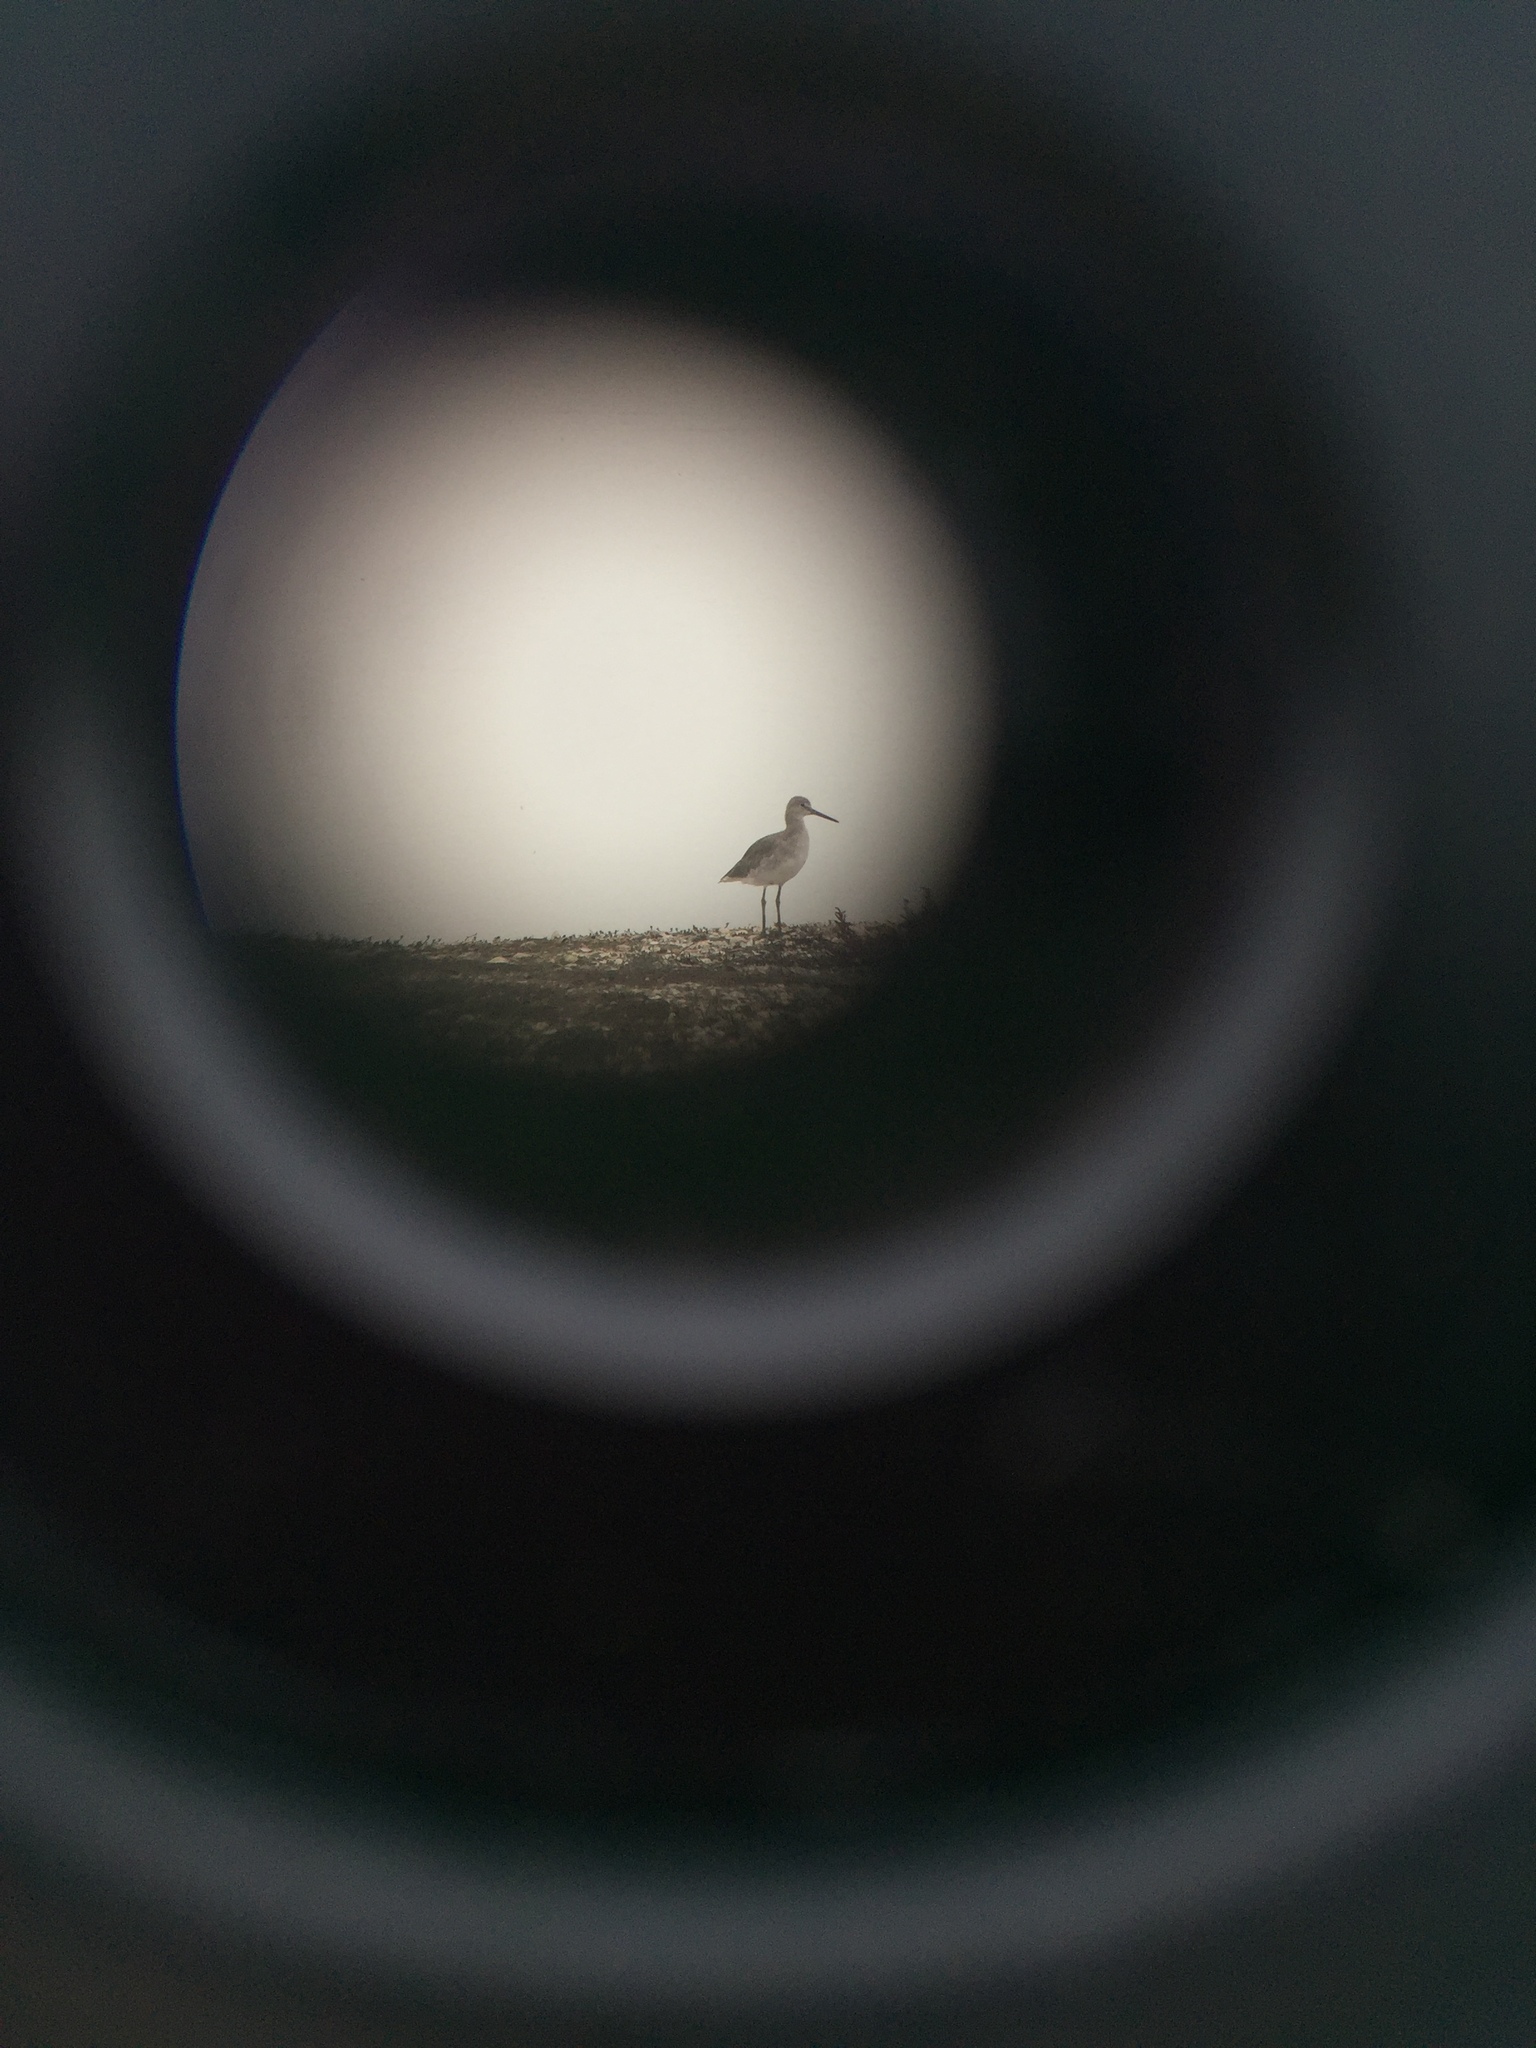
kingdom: Animalia
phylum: Chordata
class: Aves
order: Charadriiformes
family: Scolopacidae
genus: Tringa
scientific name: Tringa semipalmata
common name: Willet
